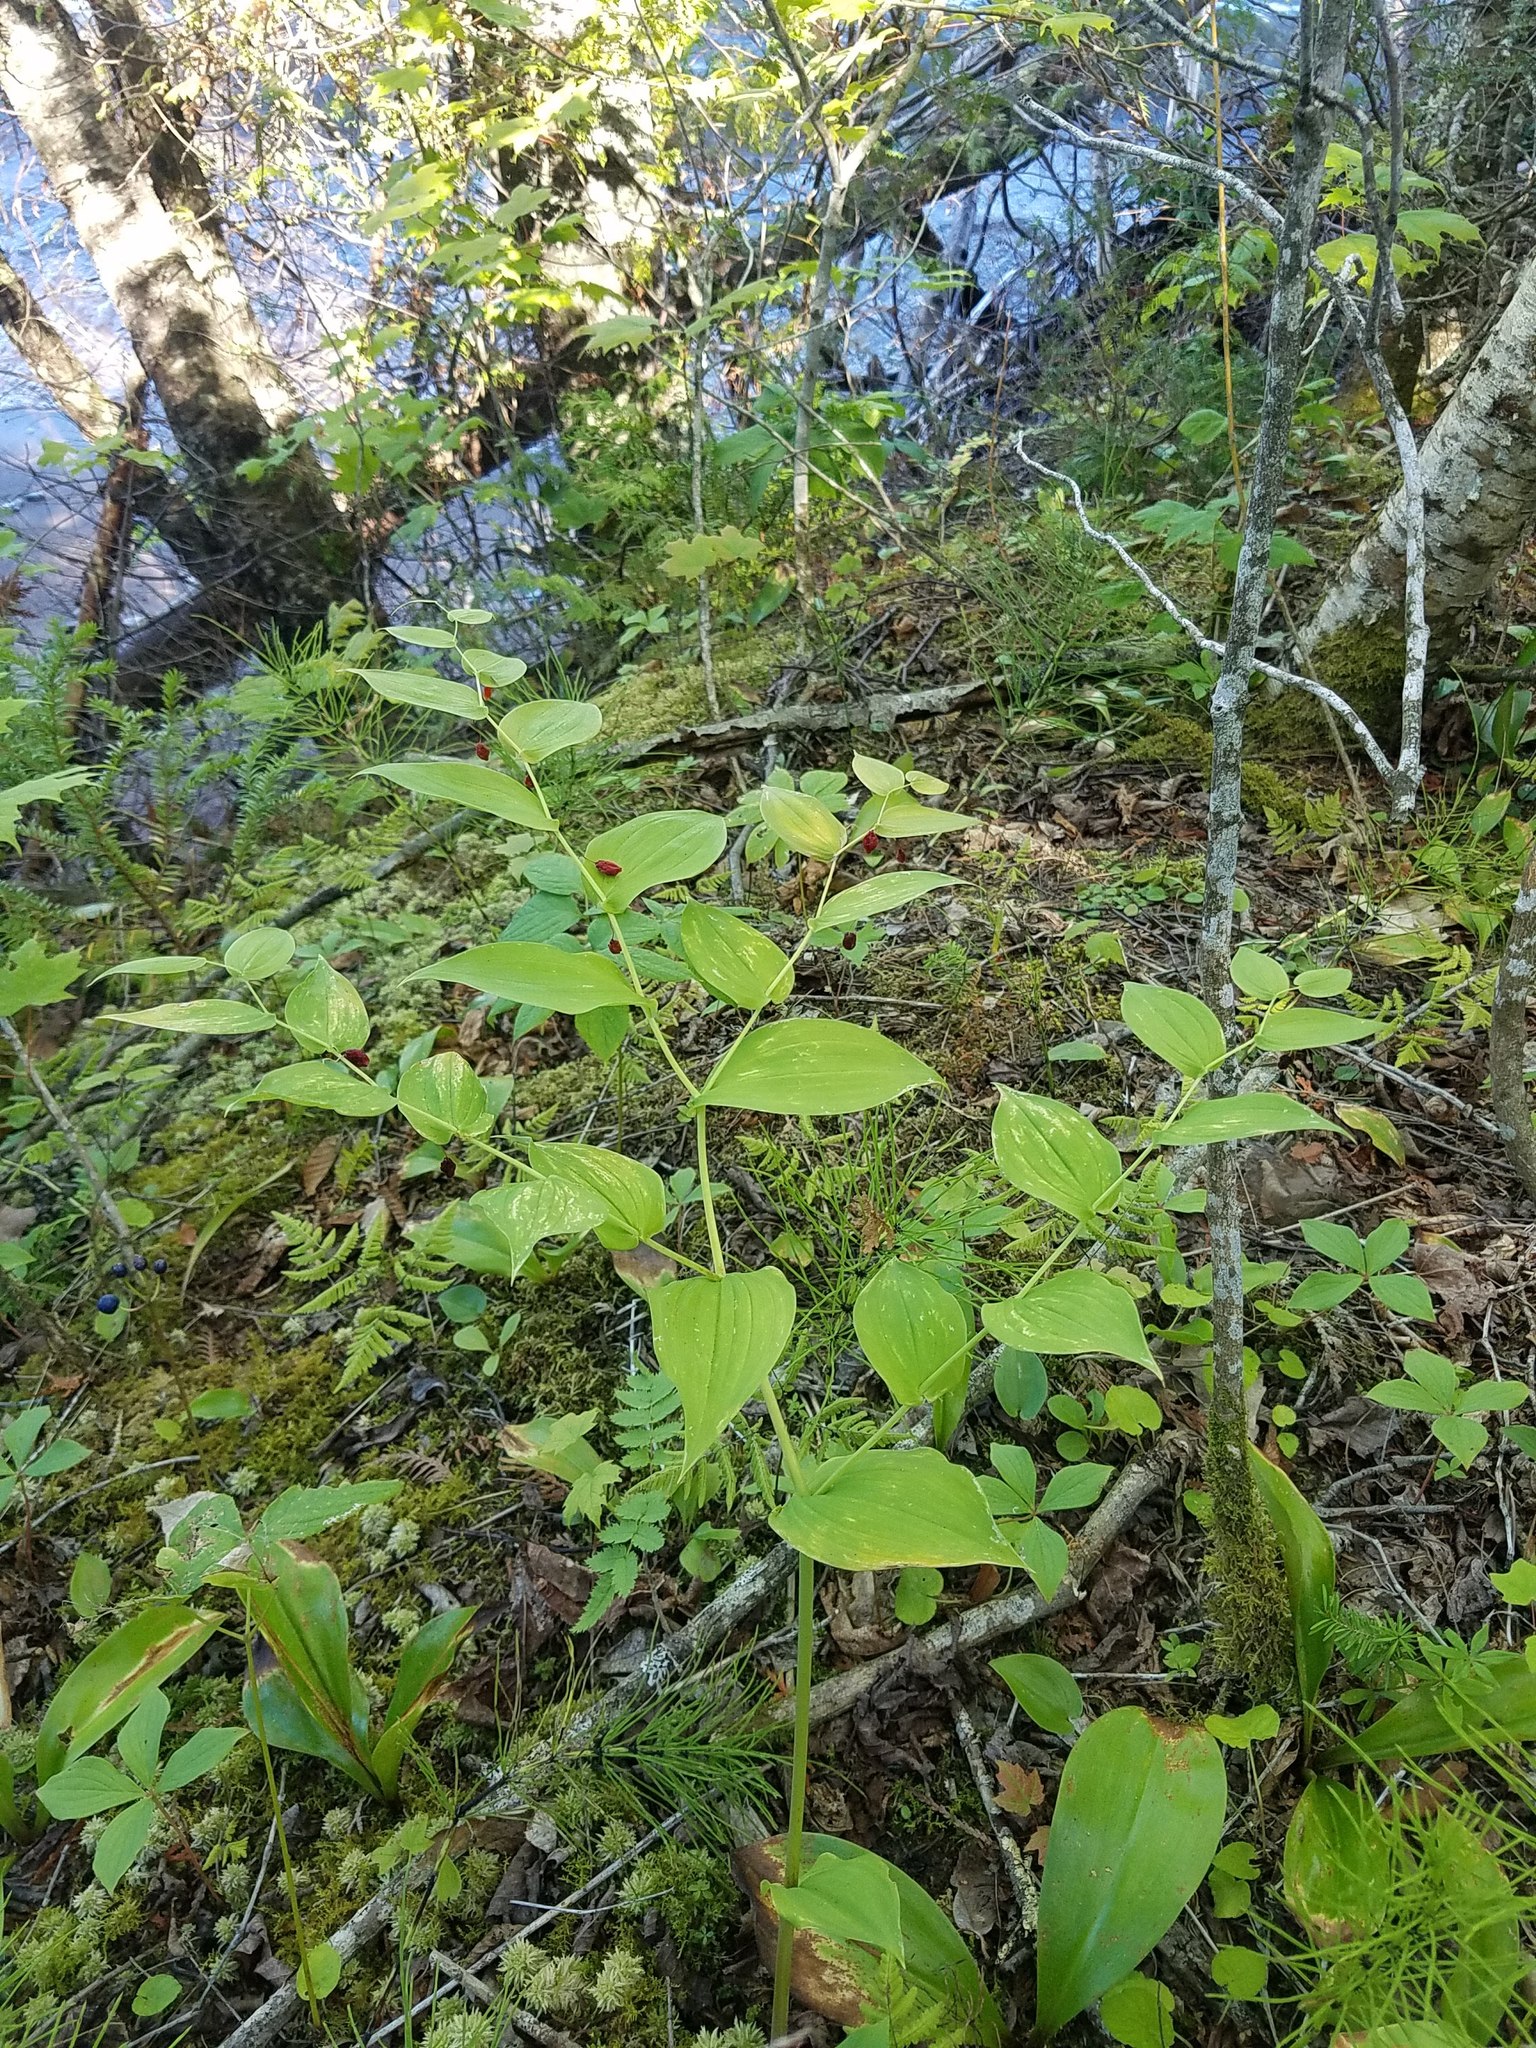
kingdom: Plantae
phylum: Tracheophyta
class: Liliopsida
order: Liliales
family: Liliaceae
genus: Streptopus
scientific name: Streptopus amplexifolius
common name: Clasp twisted stalk
